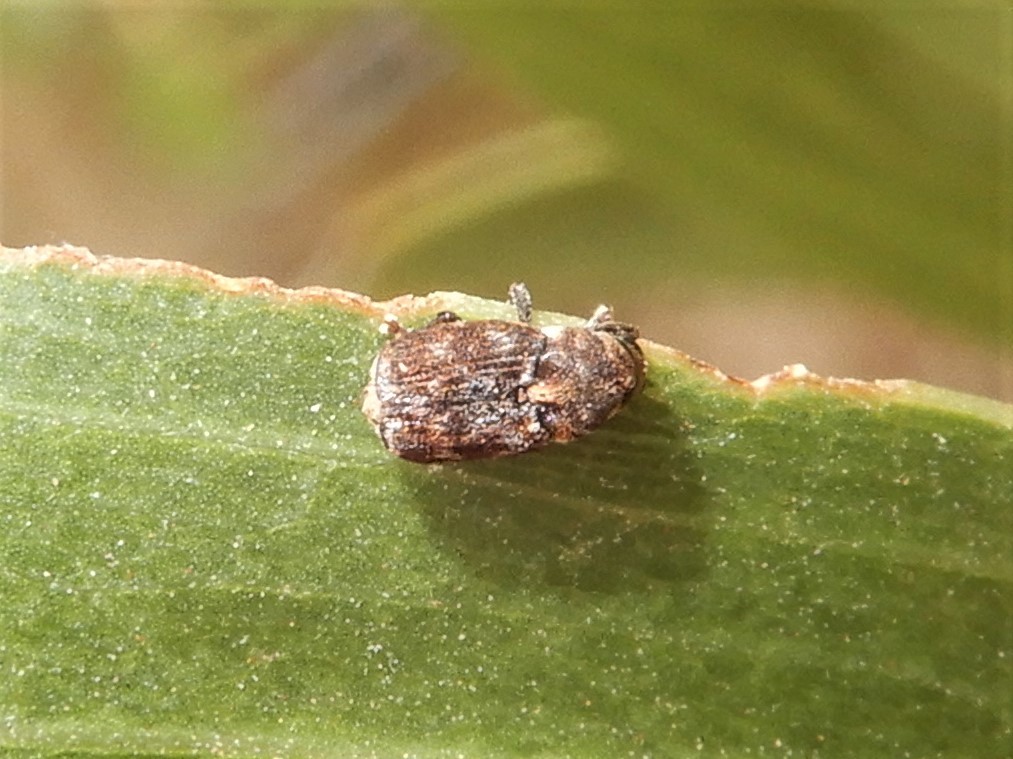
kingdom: Animalia
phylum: Arthropoda
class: Insecta
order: Coleoptera
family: Curculionidae
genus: Neolaemosaccus
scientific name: Neolaemosaccus narinus
